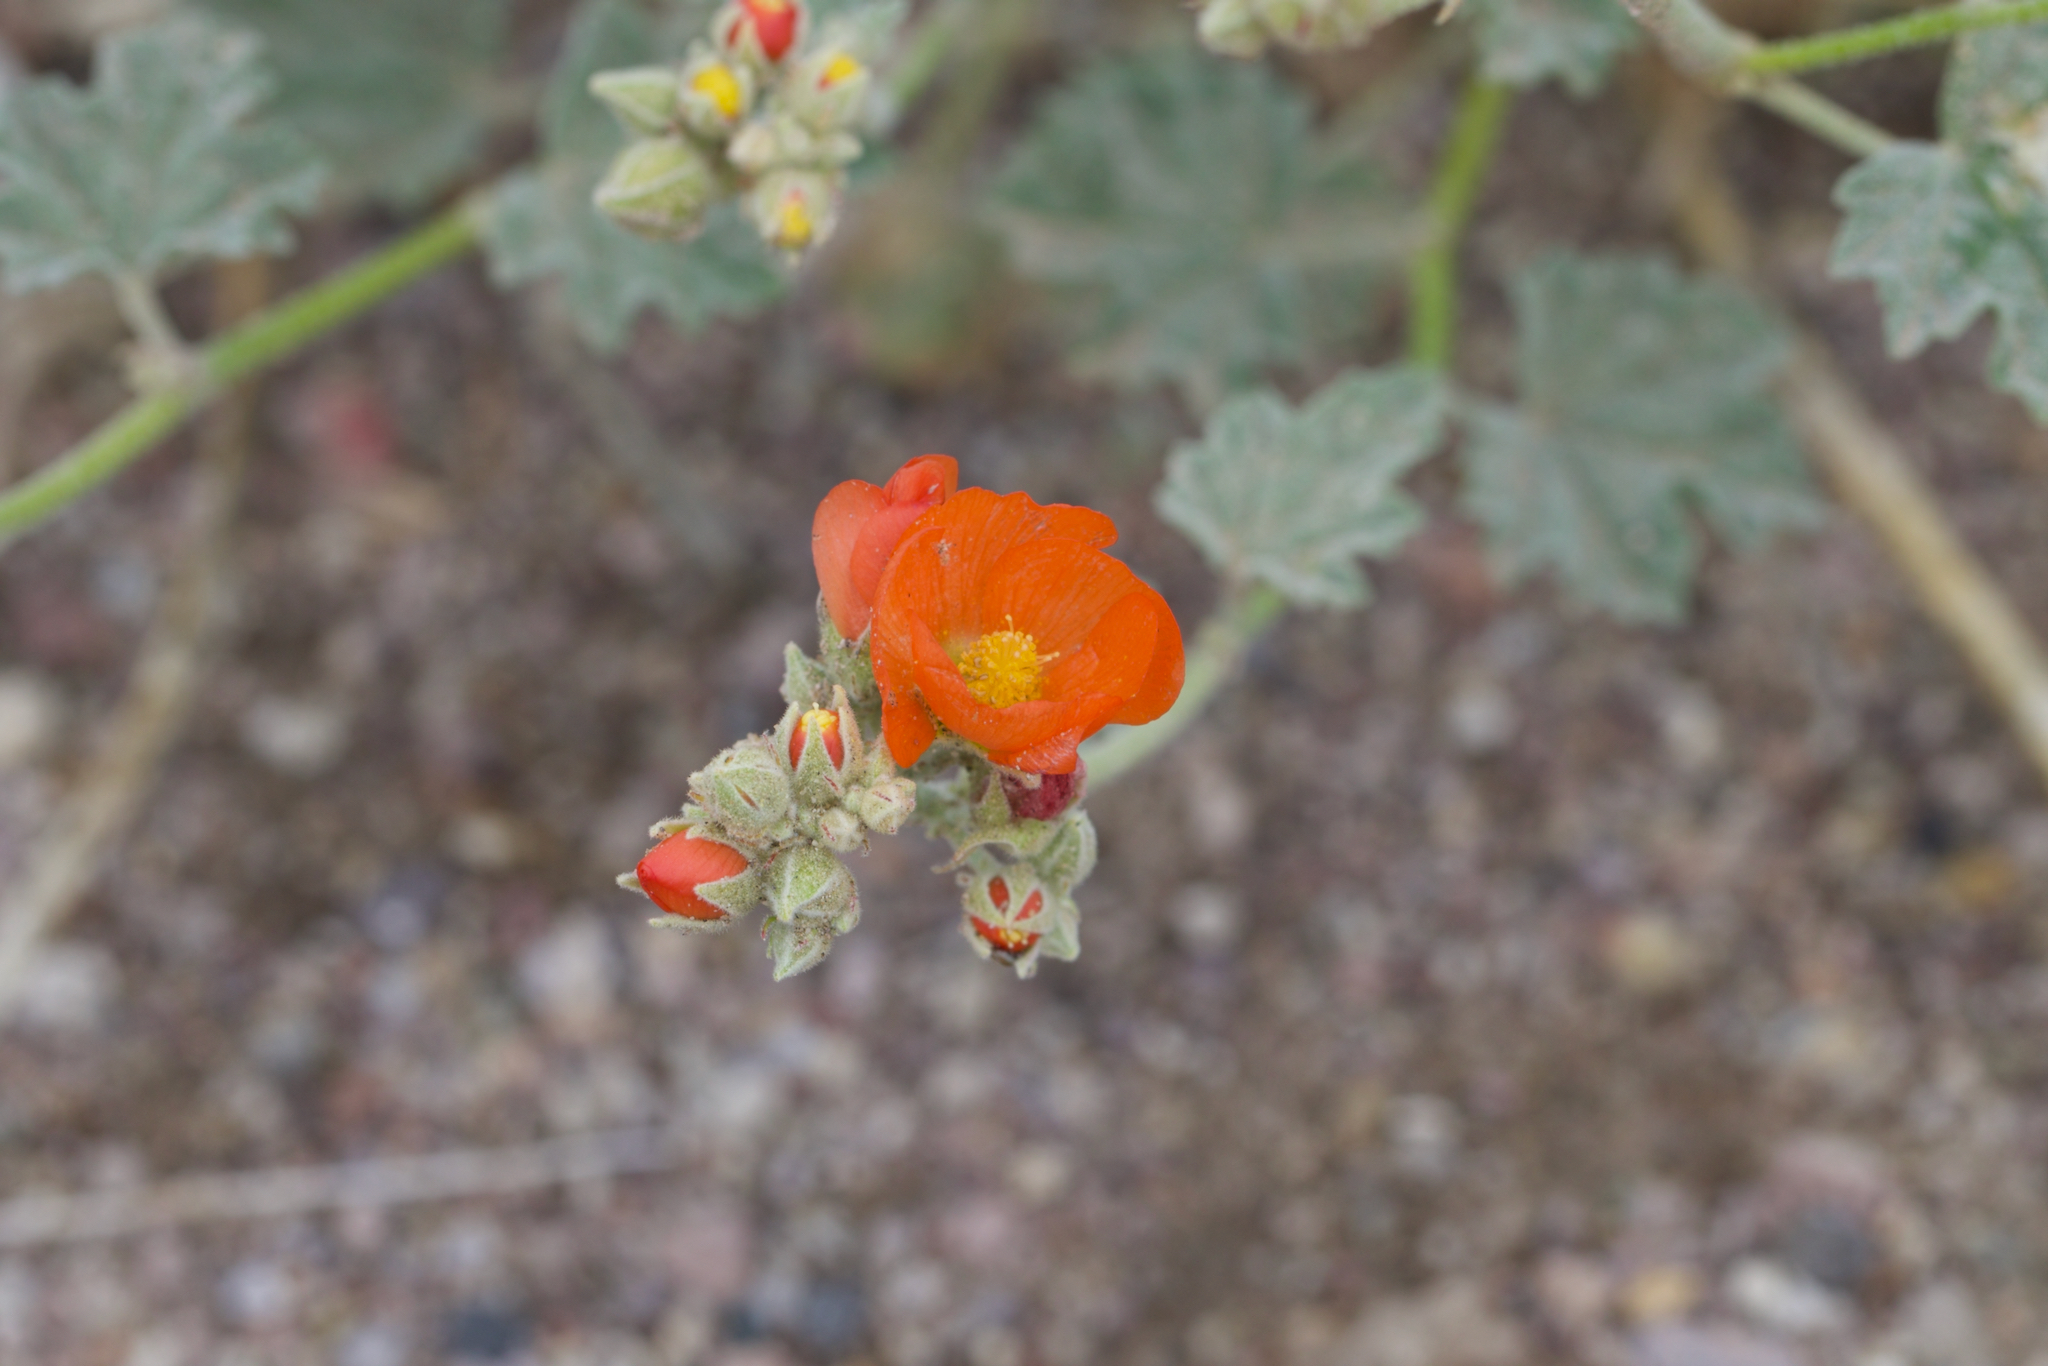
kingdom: Plantae
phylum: Tracheophyta
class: Magnoliopsida
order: Malvales
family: Malvaceae
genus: Sphaeralcea
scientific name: Sphaeralcea ambigua
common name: Apricot globe-mallow
